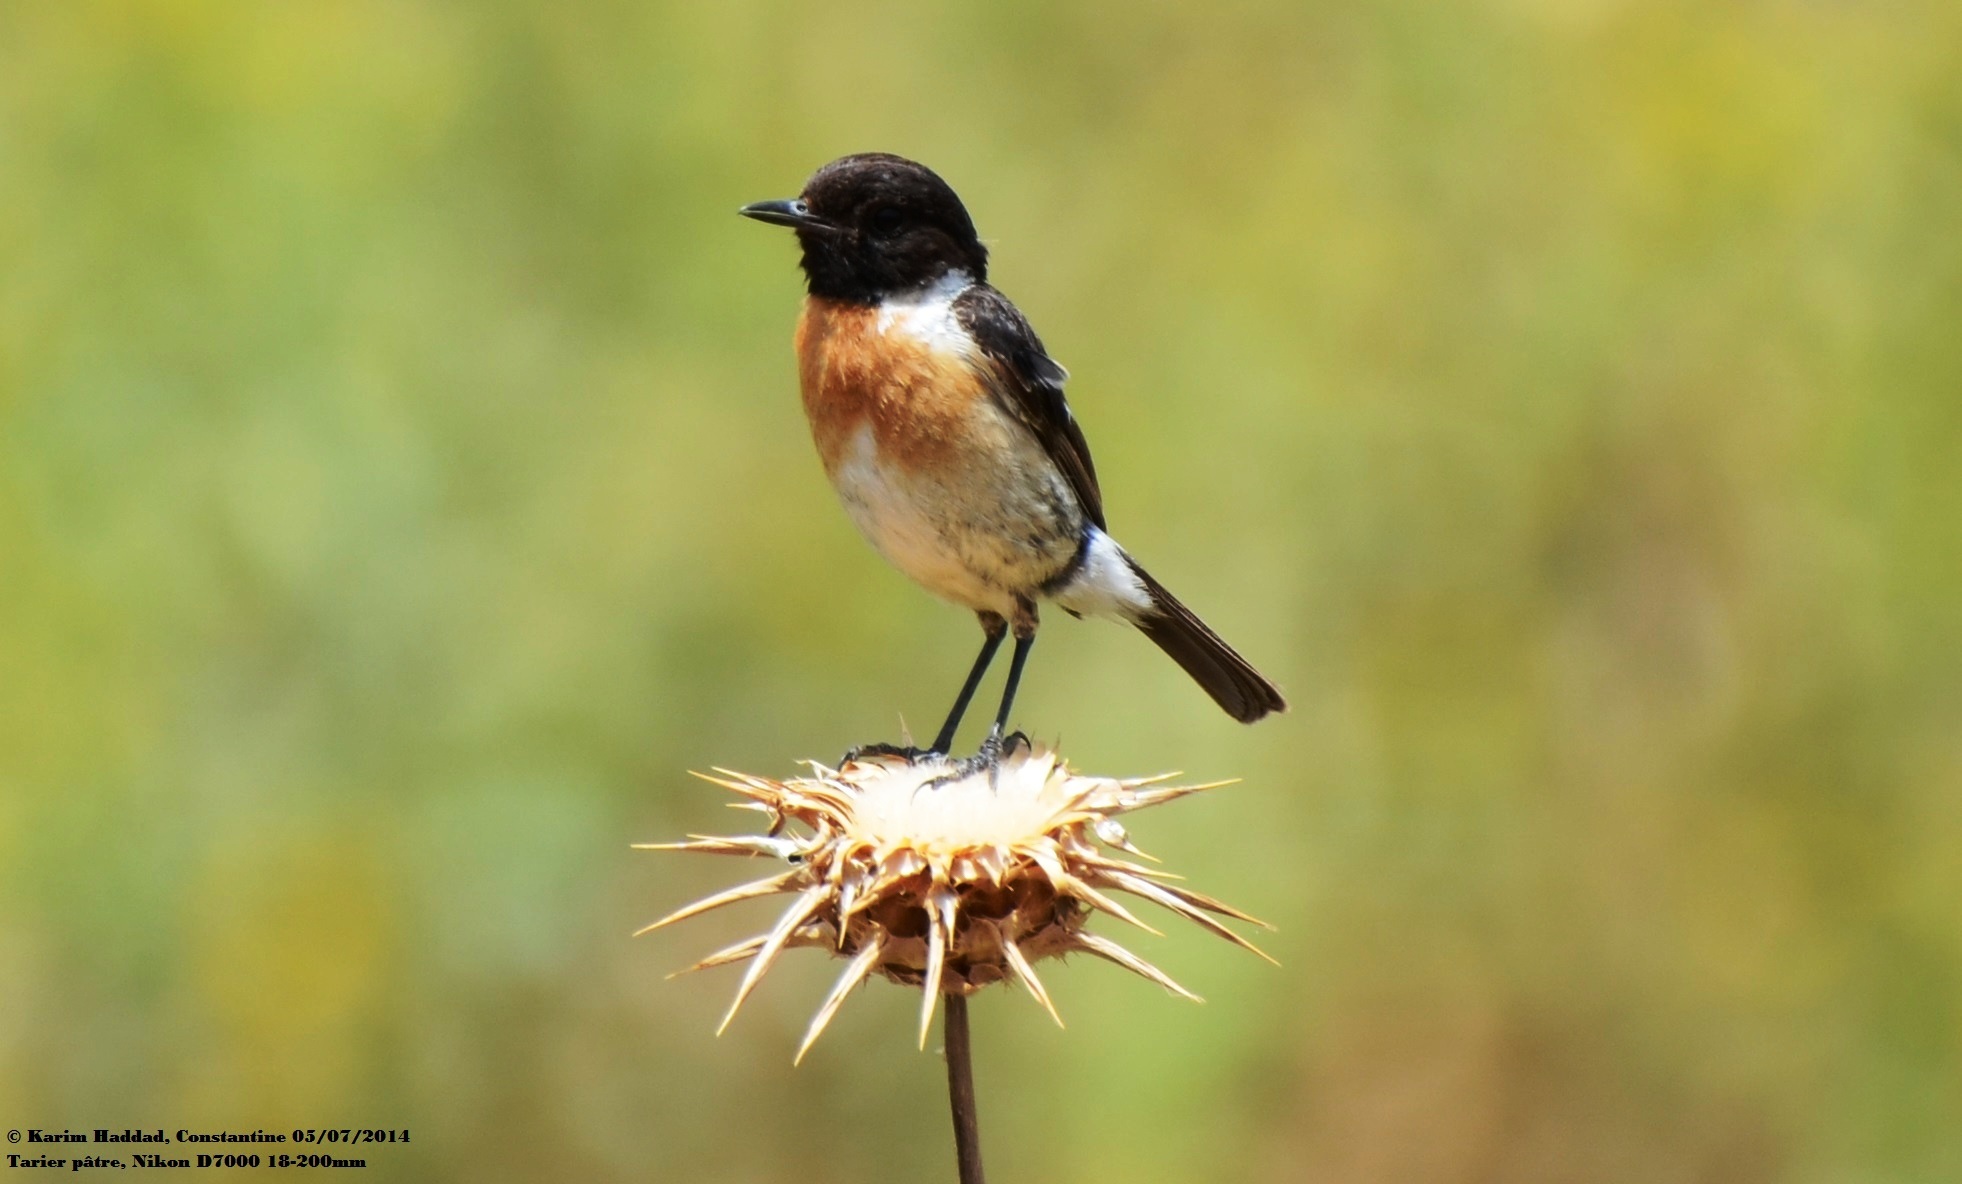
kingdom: Animalia
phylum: Chordata
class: Aves
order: Passeriformes
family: Muscicapidae
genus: Saxicola
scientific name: Saxicola rubicola
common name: European stonechat
